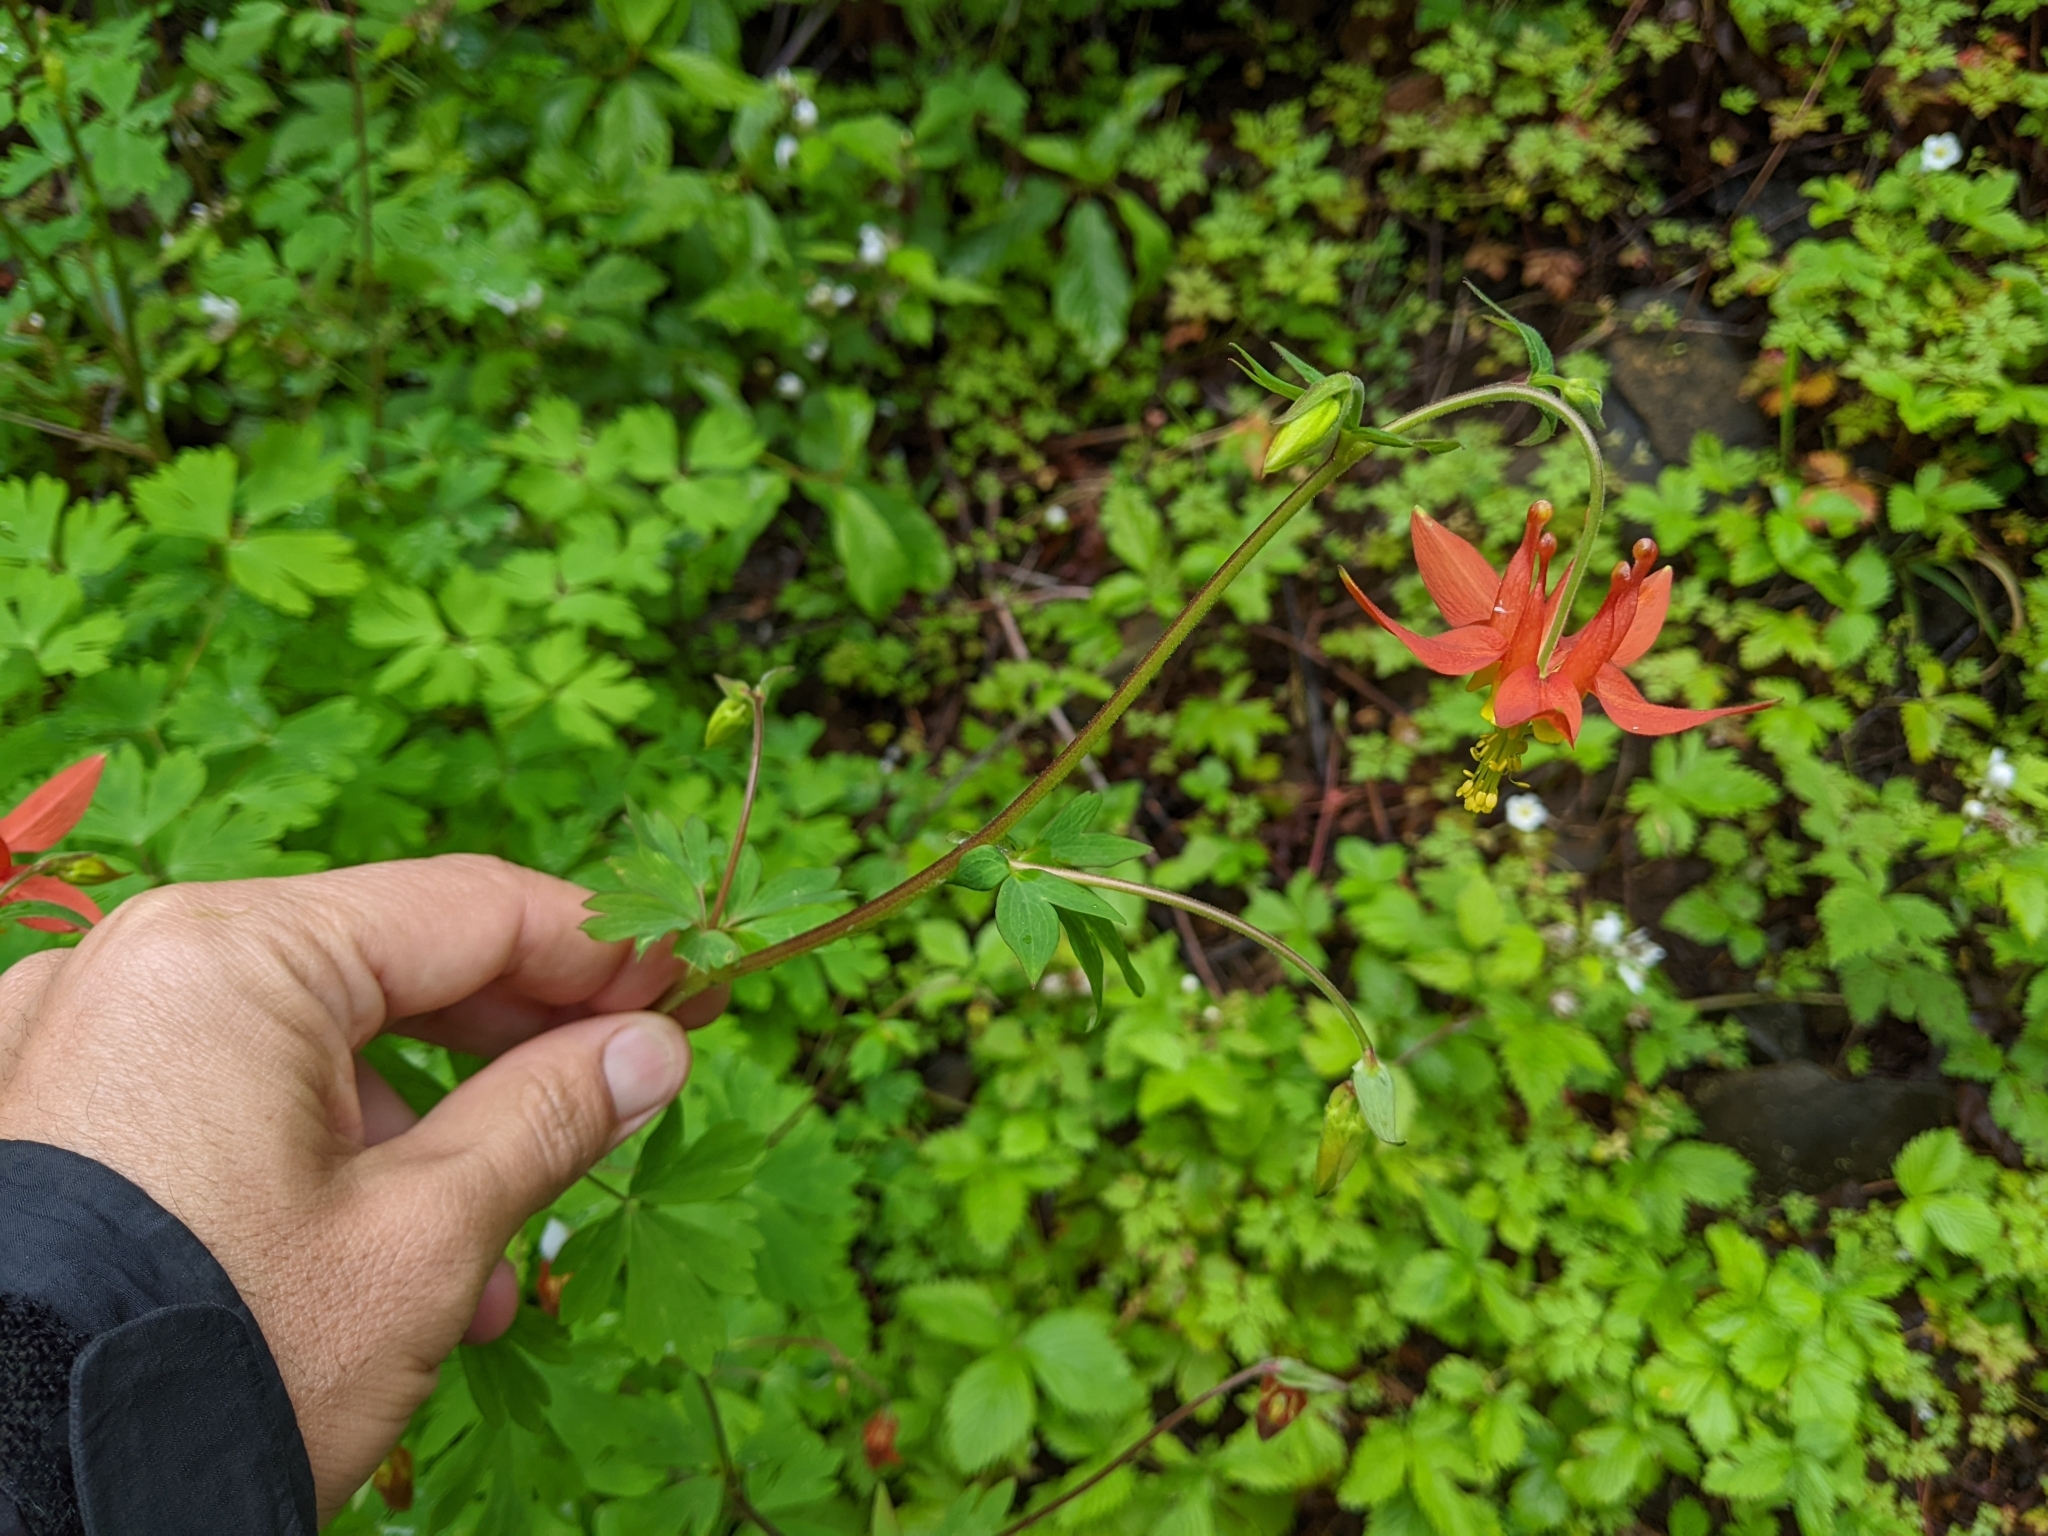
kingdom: Plantae
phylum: Tracheophyta
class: Magnoliopsida
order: Ranunculales
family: Ranunculaceae
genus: Aquilegia
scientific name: Aquilegia formosa
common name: Sitka columbine
